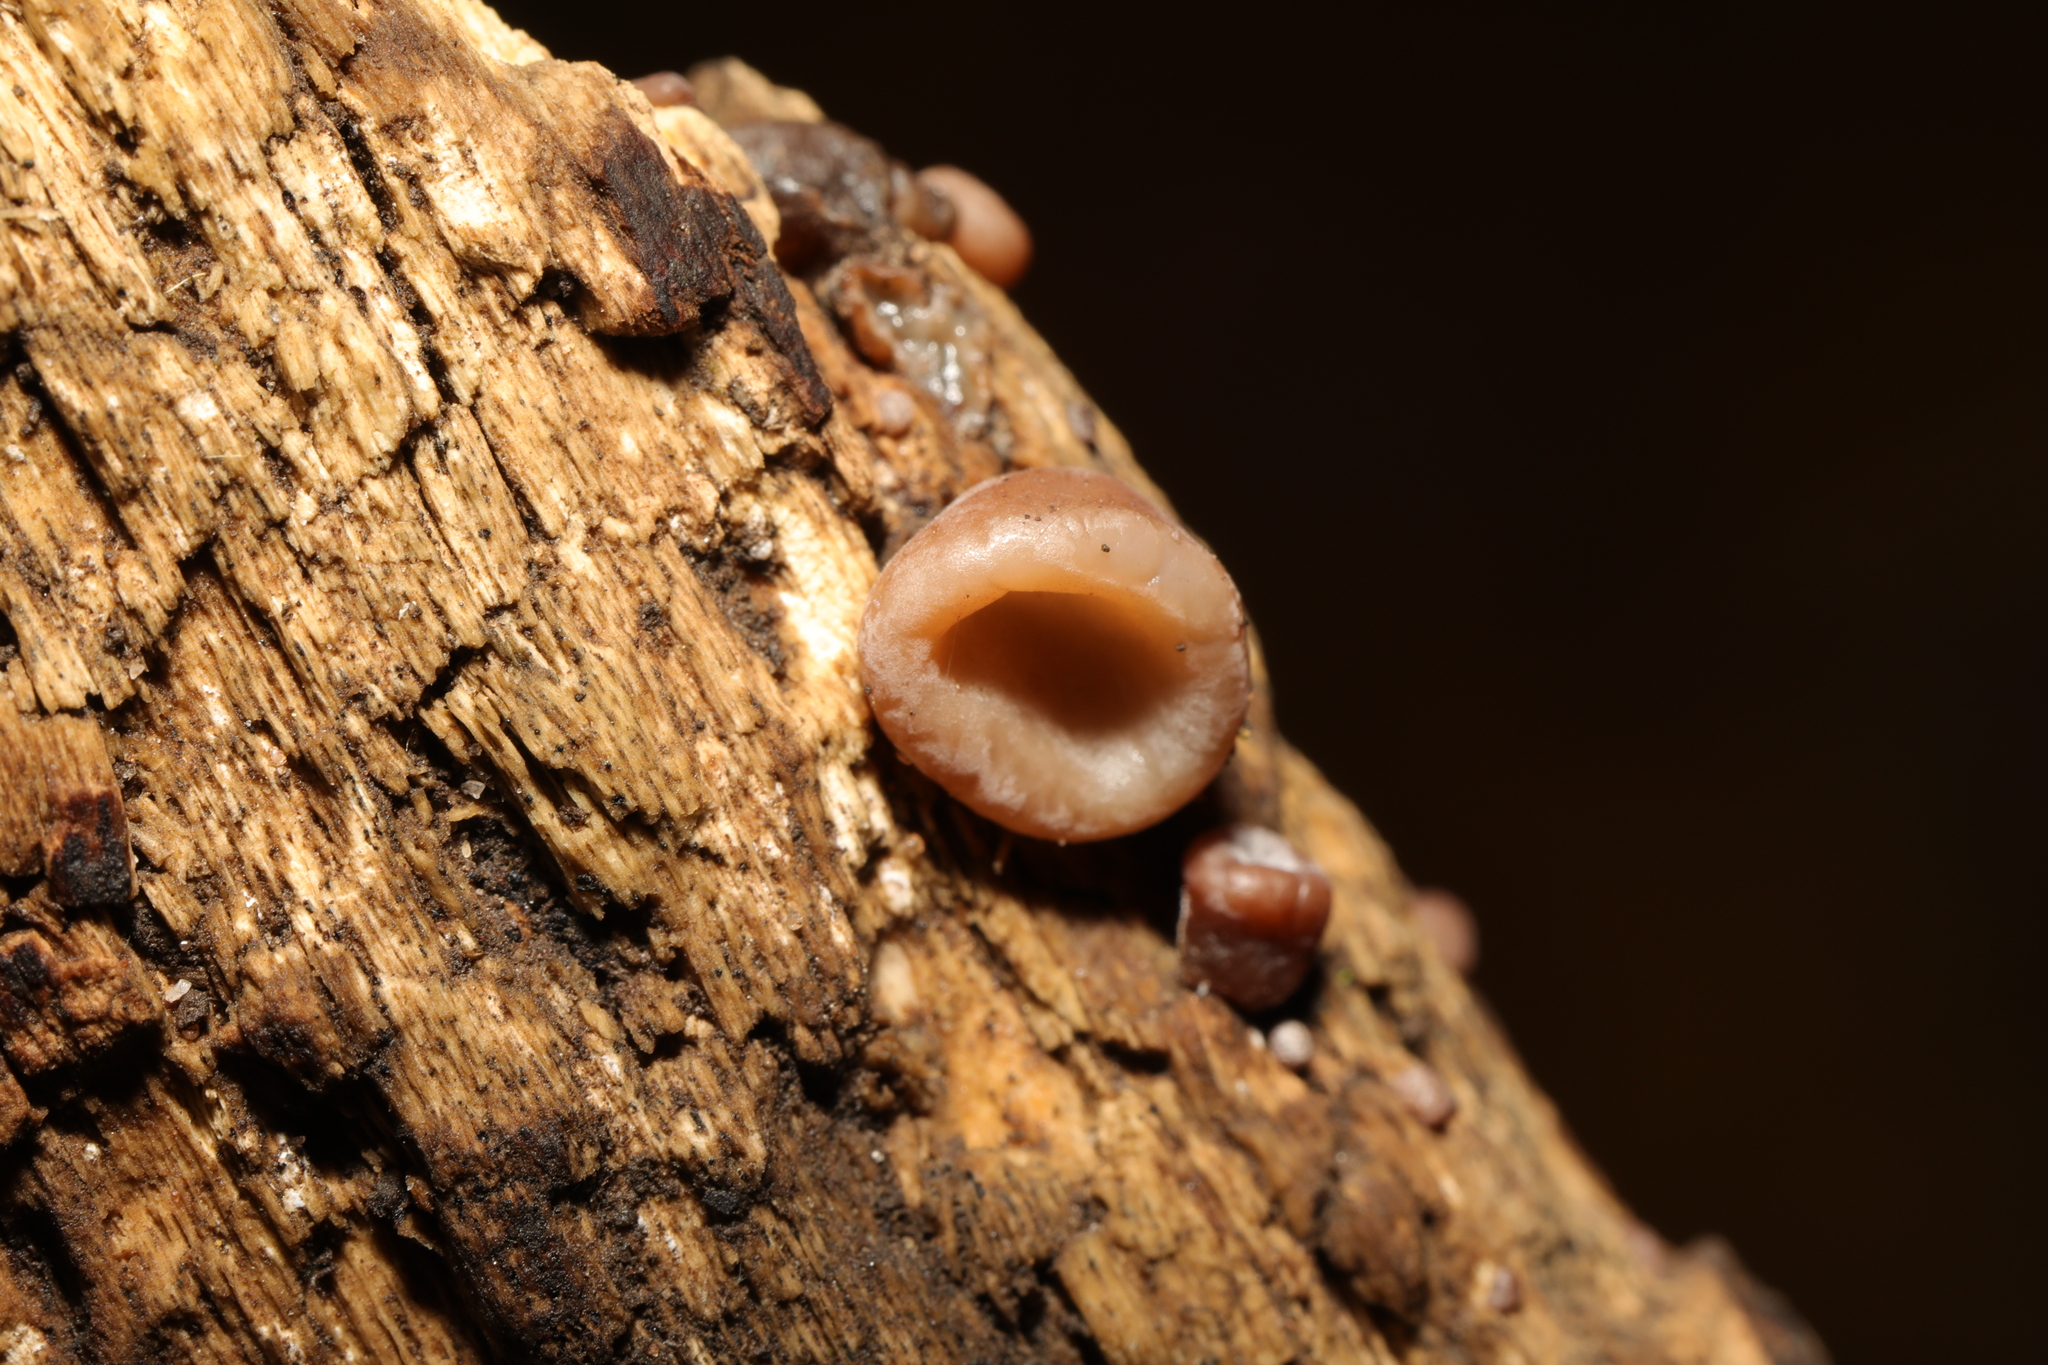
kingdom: Fungi
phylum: Basidiomycota
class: Agaricomycetes
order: Auriculariales
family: Auriculariaceae
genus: Auricularia
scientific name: Auricularia auricula-judae
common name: Jelly ear
